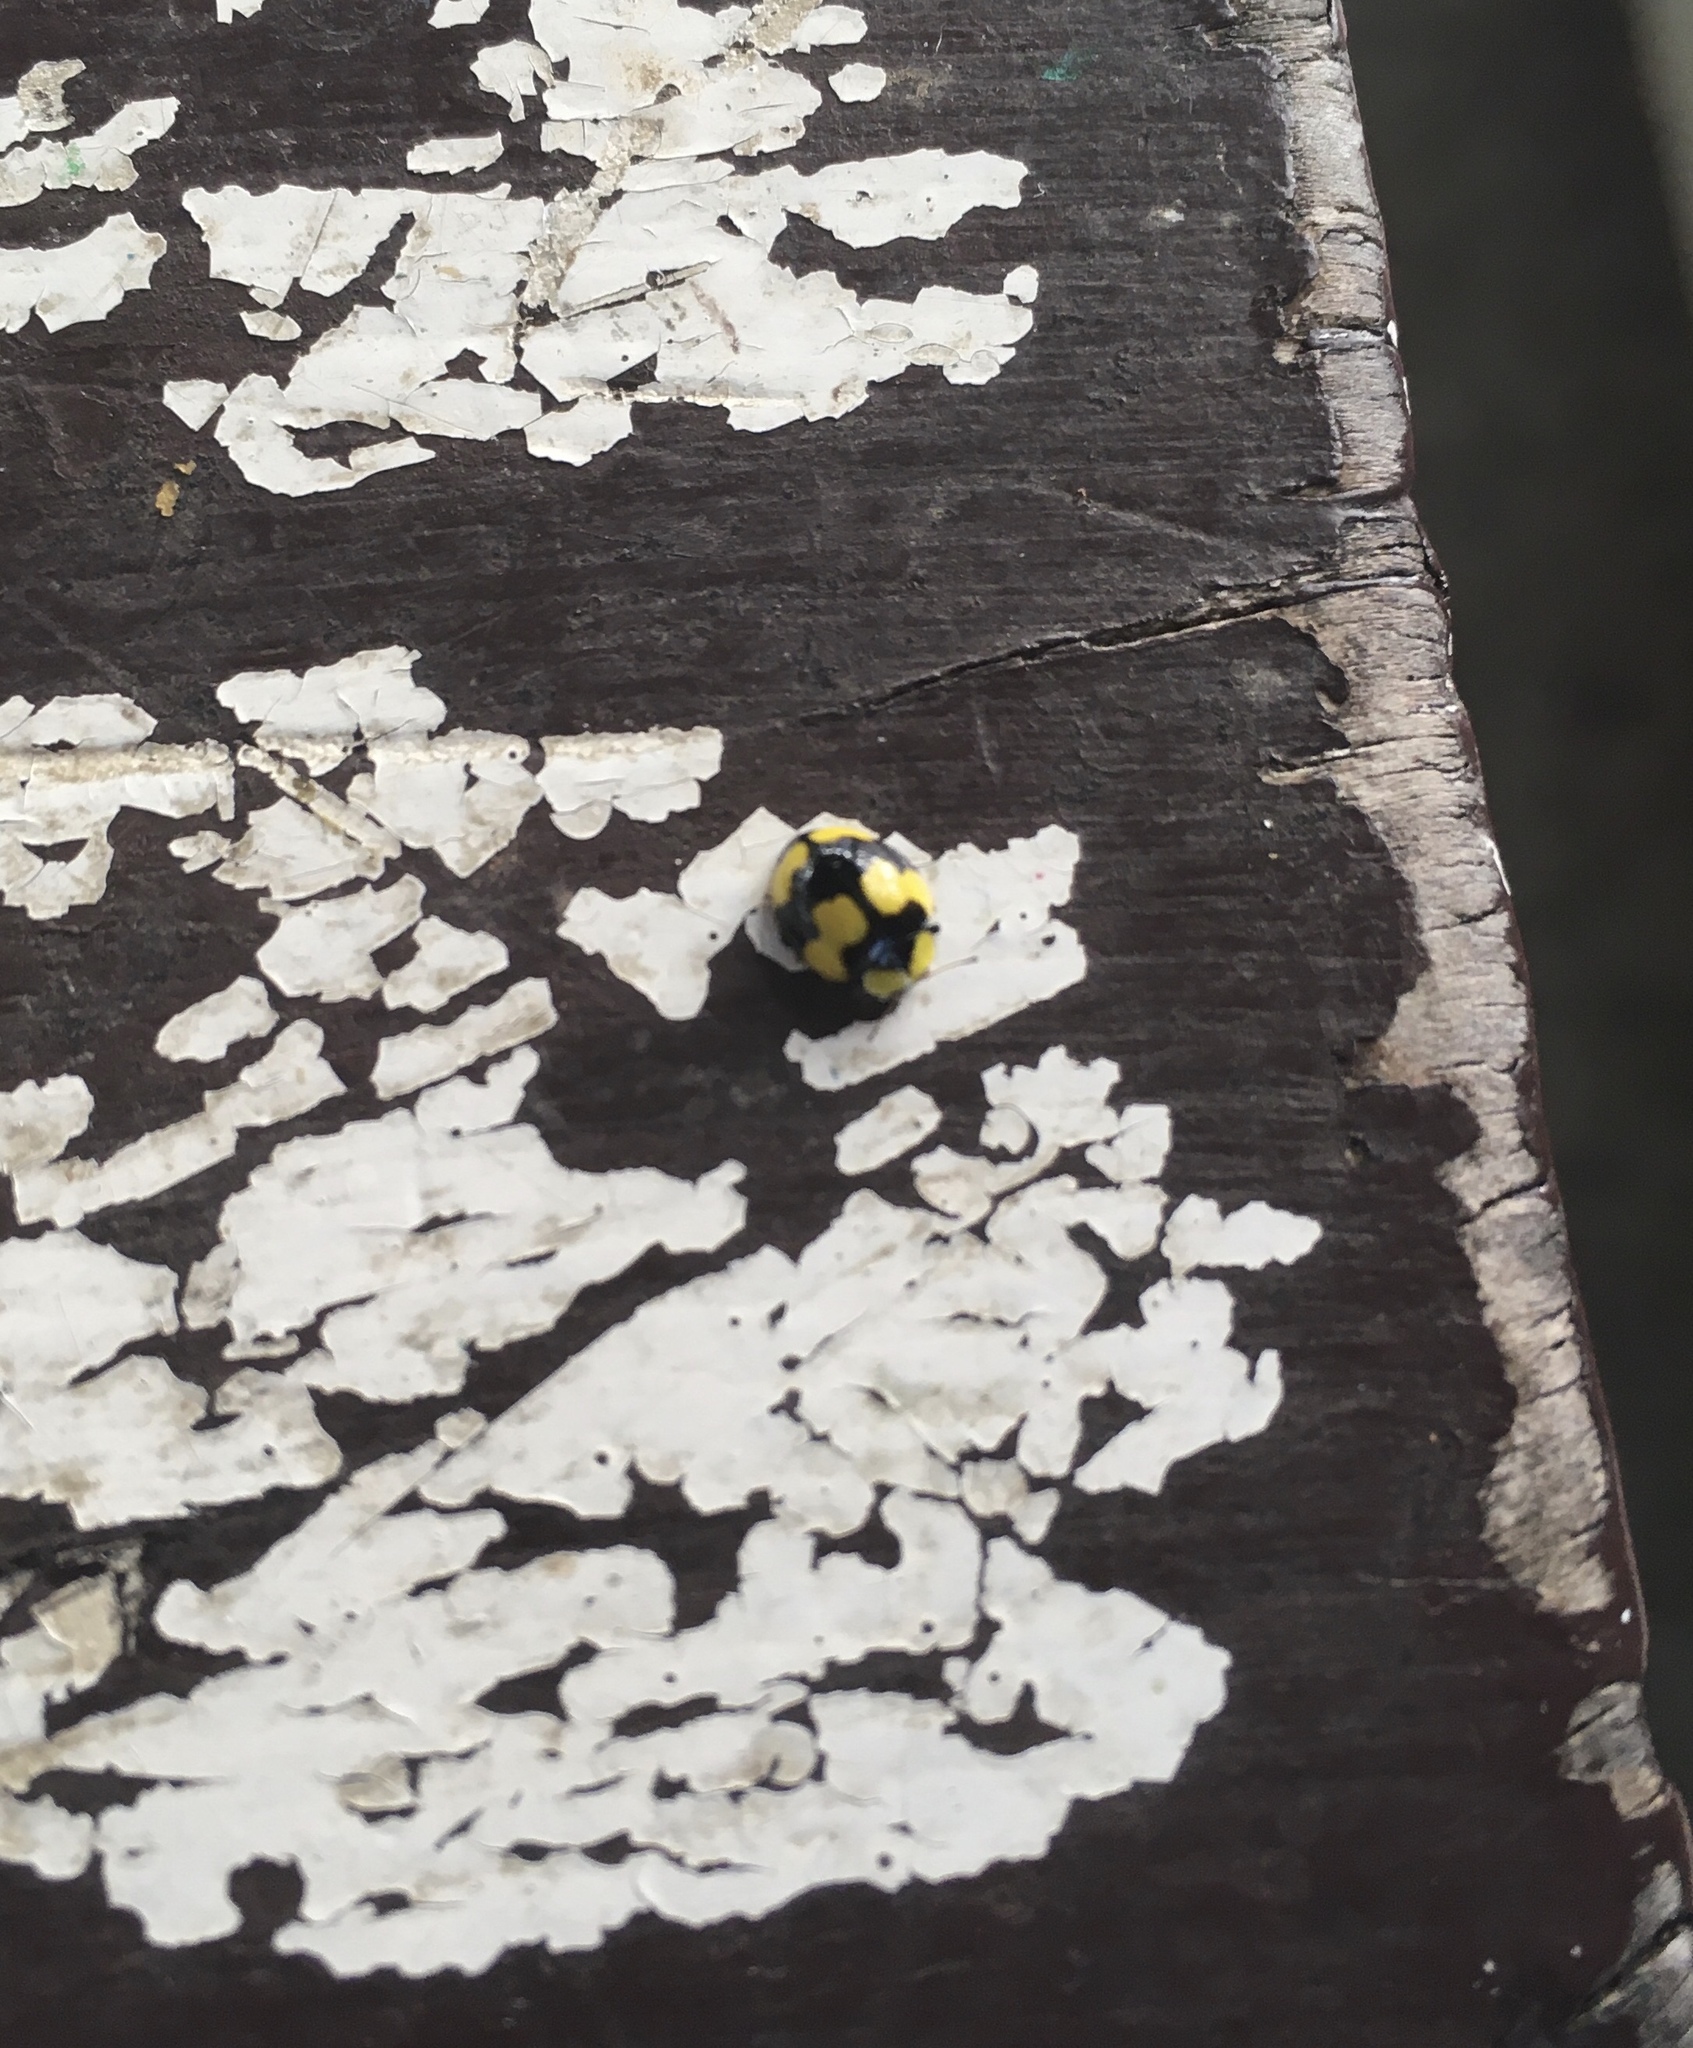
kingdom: Animalia
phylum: Arthropoda
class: Insecta
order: Coleoptera
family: Coccinellidae
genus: Illeis
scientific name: Illeis galbula
